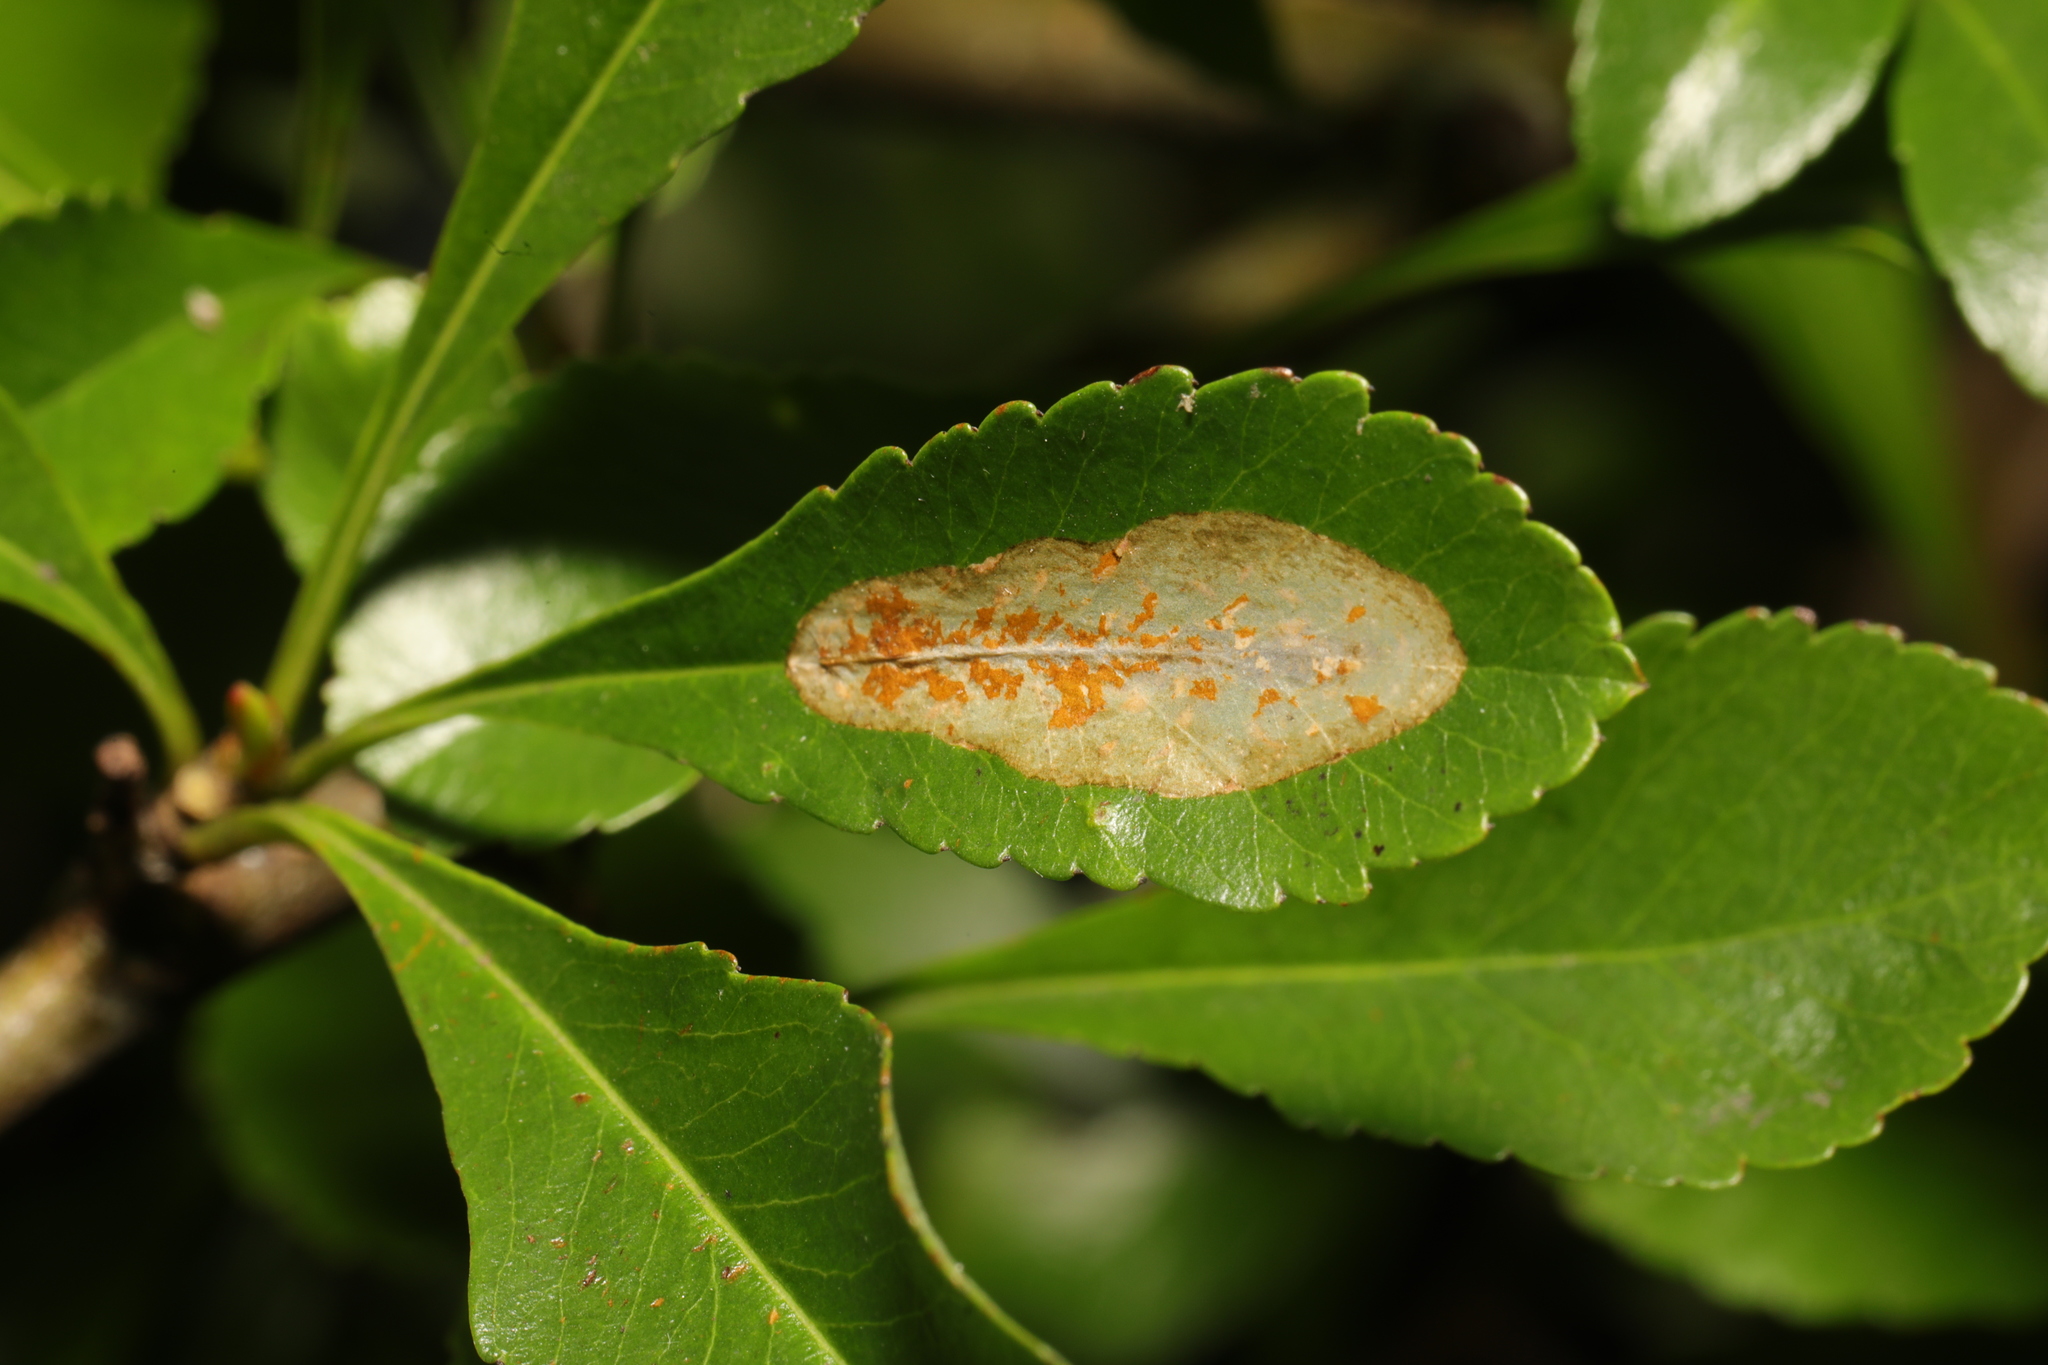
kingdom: Animalia
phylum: Arthropoda
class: Insecta
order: Lepidoptera
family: Gracillariidae
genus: Phyllonorycter
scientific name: Phyllonorycter leucographella
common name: Firethorn leaf-miner
